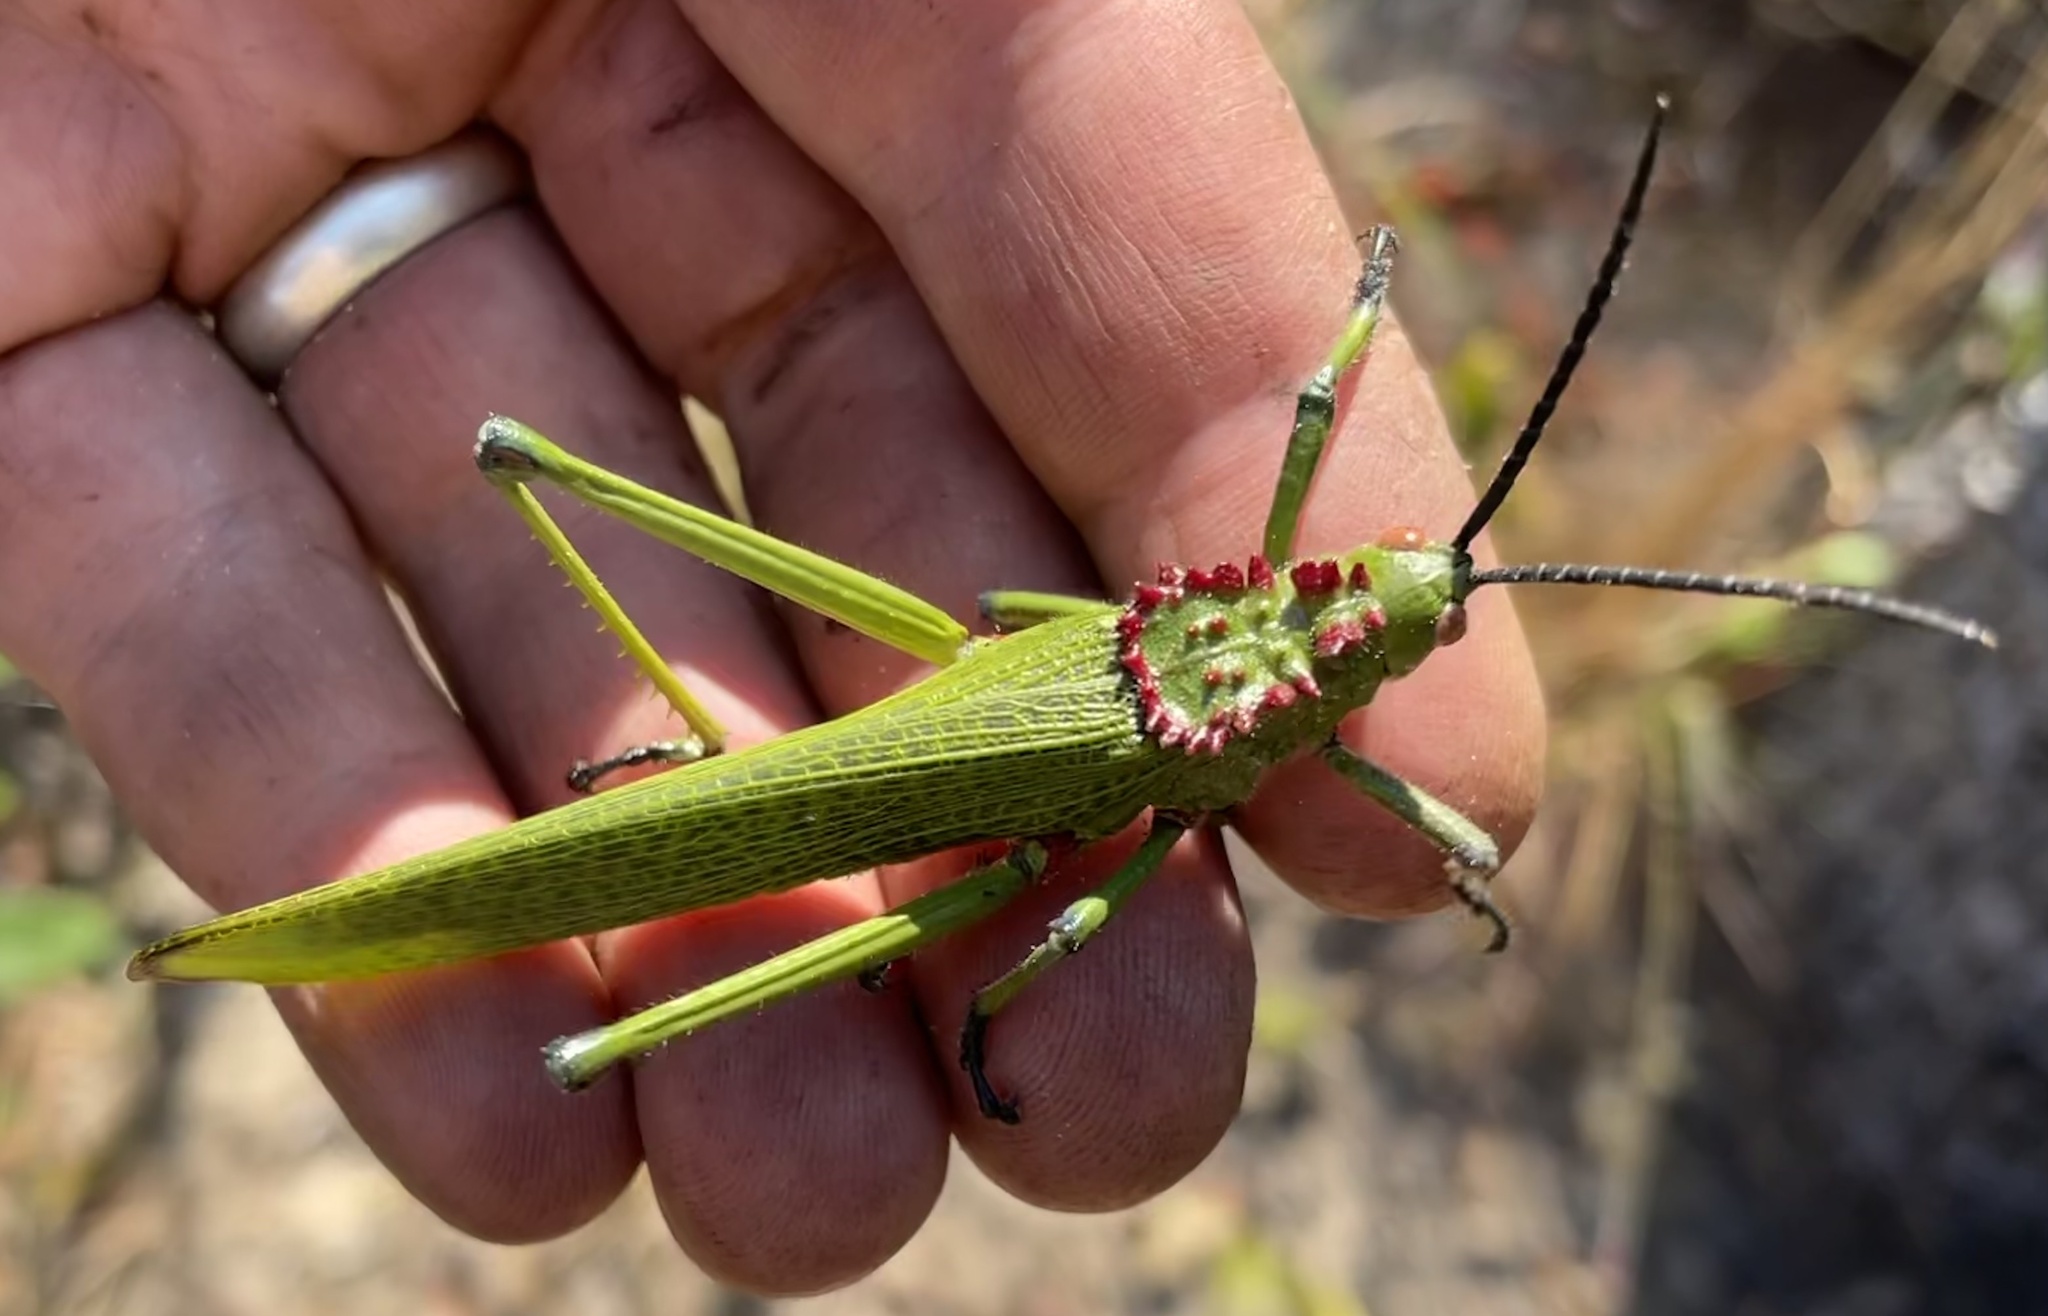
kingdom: Animalia
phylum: Arthropoda
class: Insecta
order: Orthoptera
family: Pyrgomorphidae
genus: Phymateus
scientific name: Phymateus viridipes
